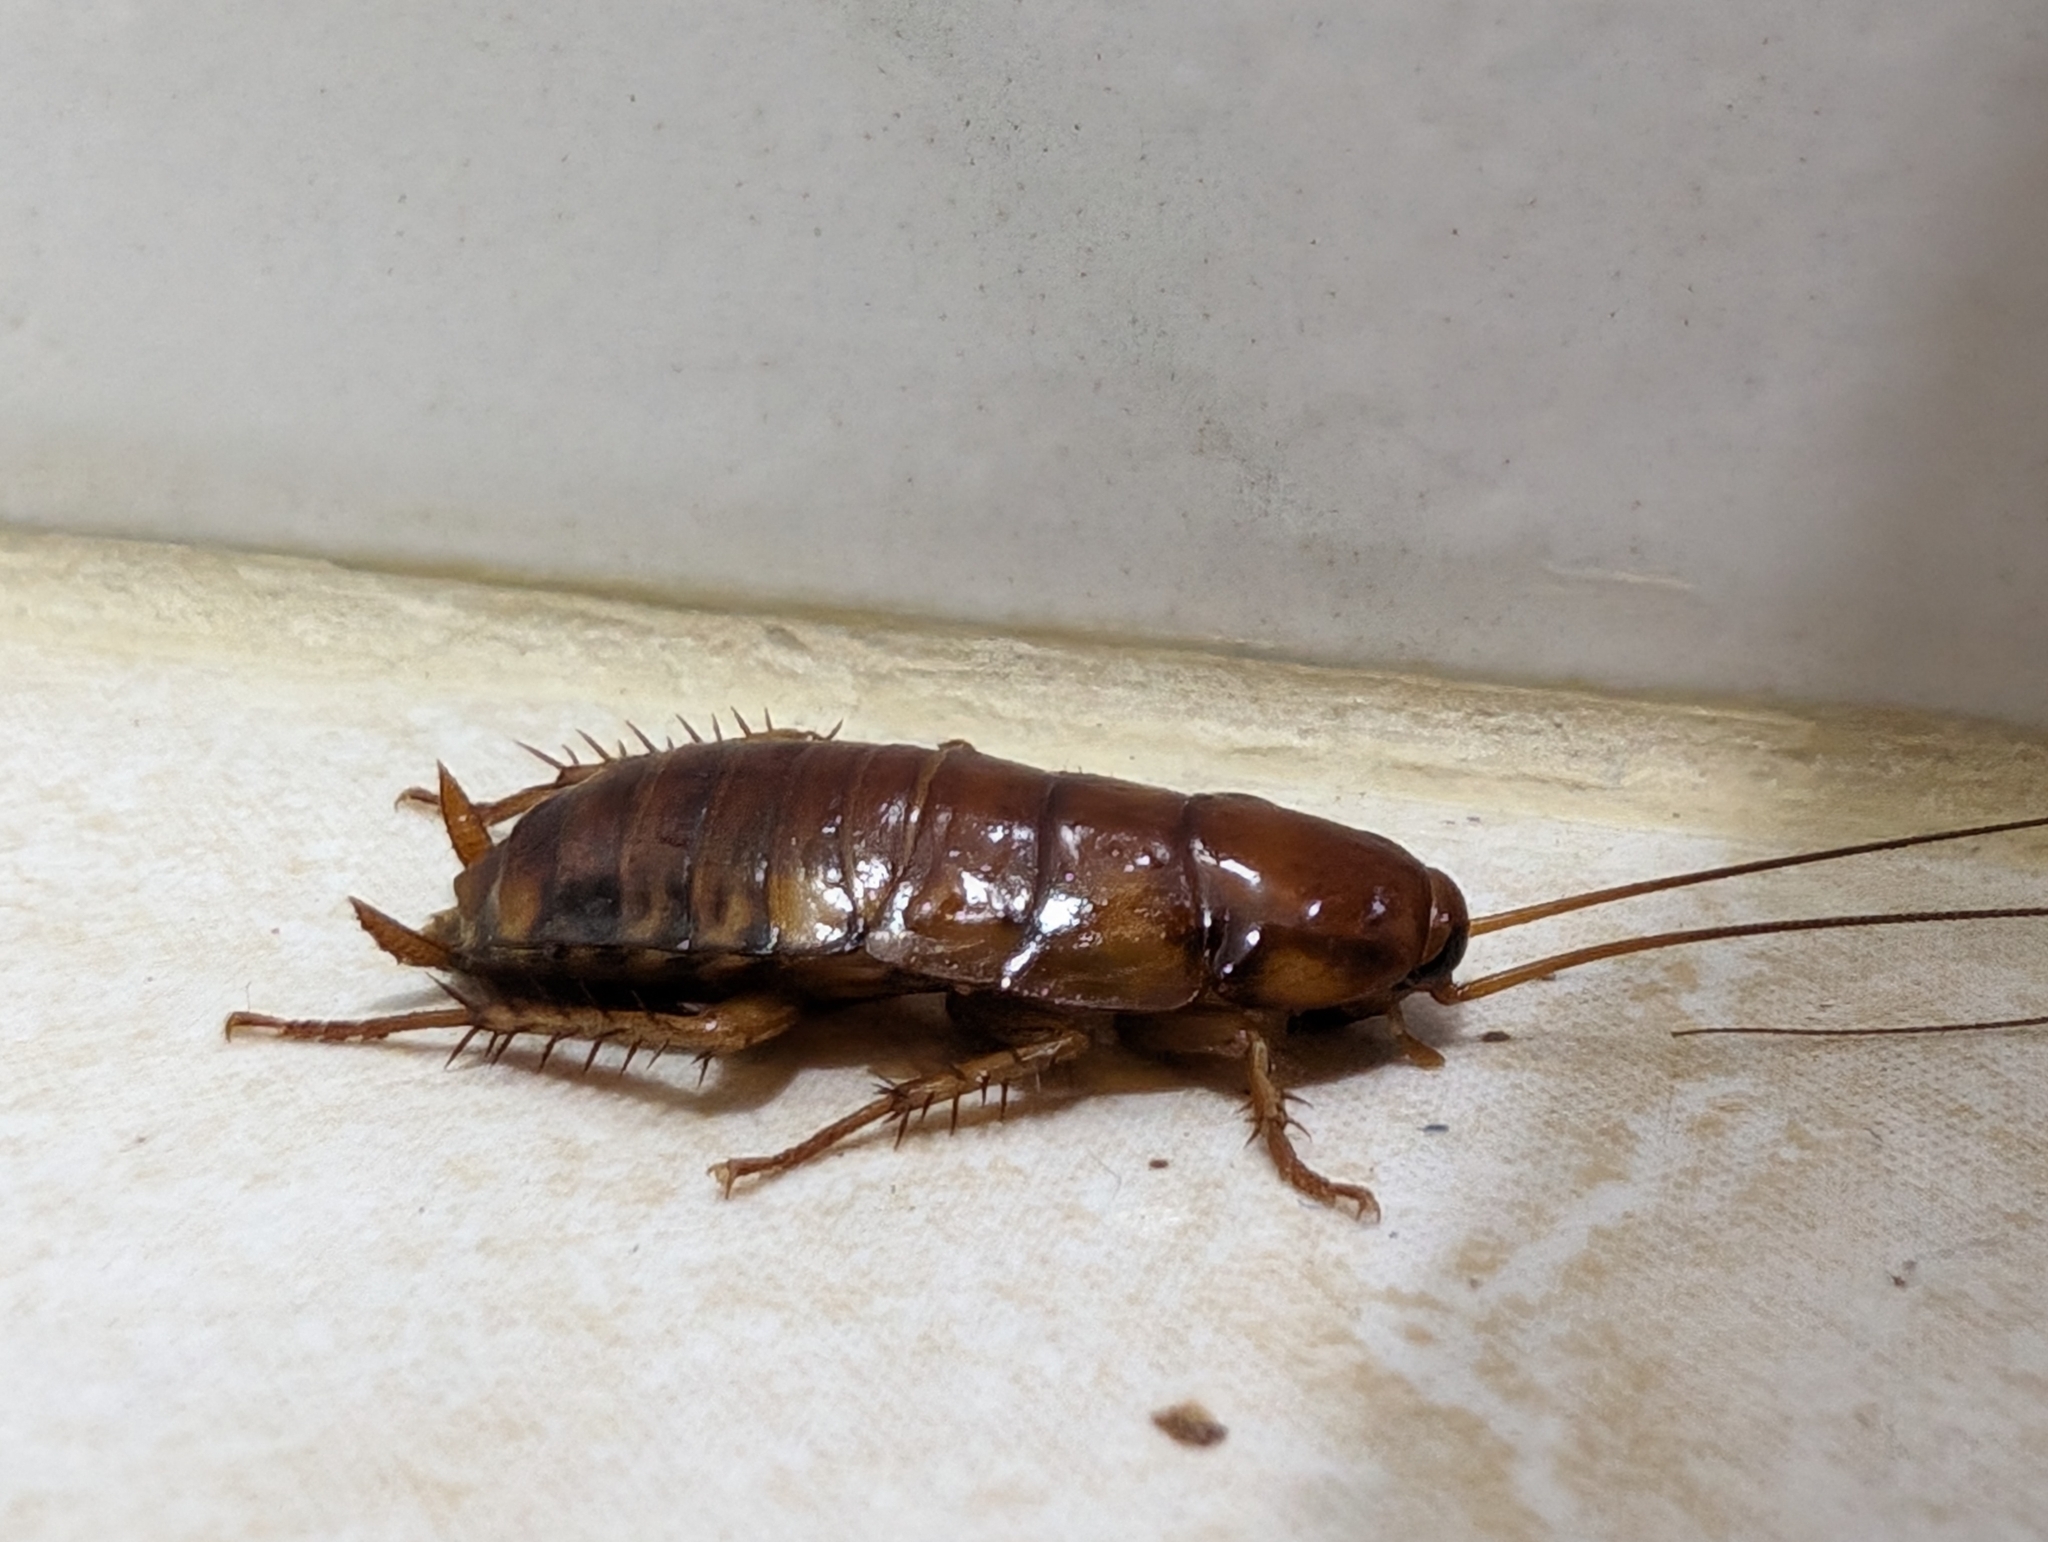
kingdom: Animalia
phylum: Arthropoda
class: Insecta
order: Blattodea
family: Blattidae
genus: Periplaneta
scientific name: Periplaneta americana
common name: American cockroach
